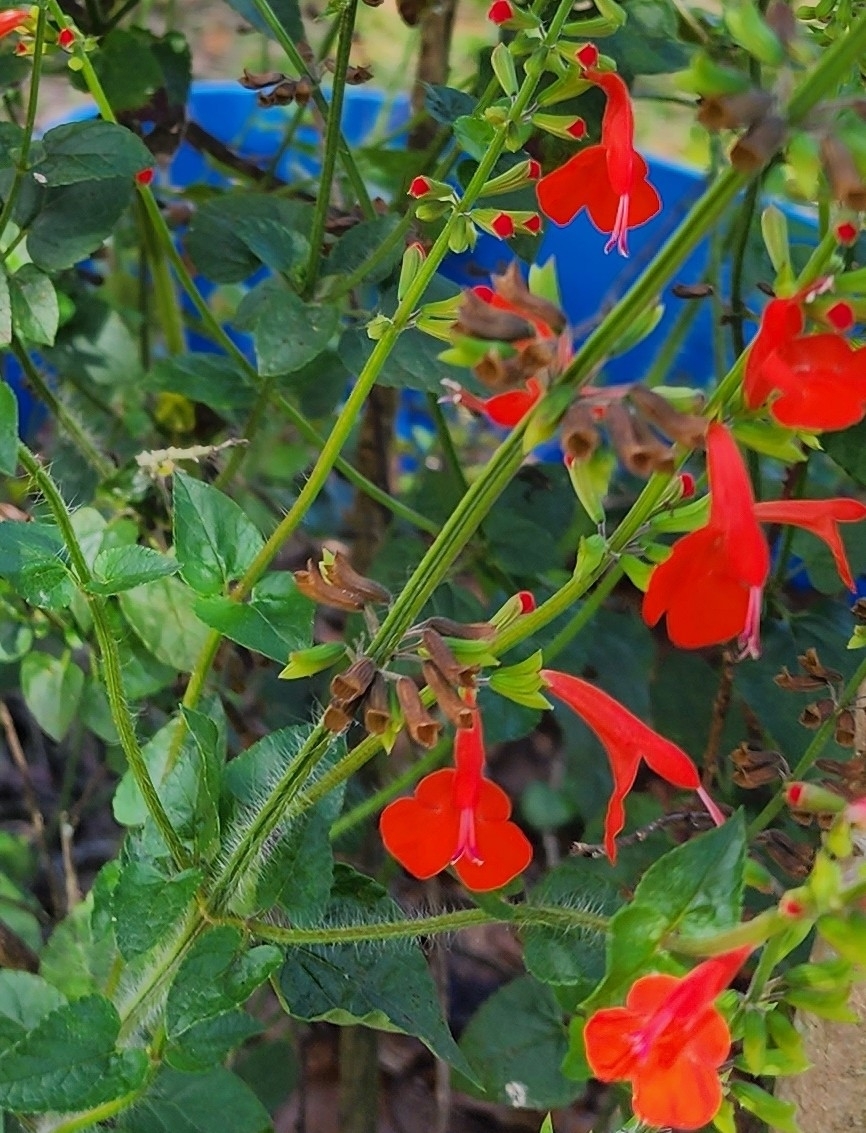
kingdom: Plantae
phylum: Tracheophyta
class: Magnoliopsida
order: Lamiales
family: Lamiaceae
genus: Salvia
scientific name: Salvia coccinea
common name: Blood sage
